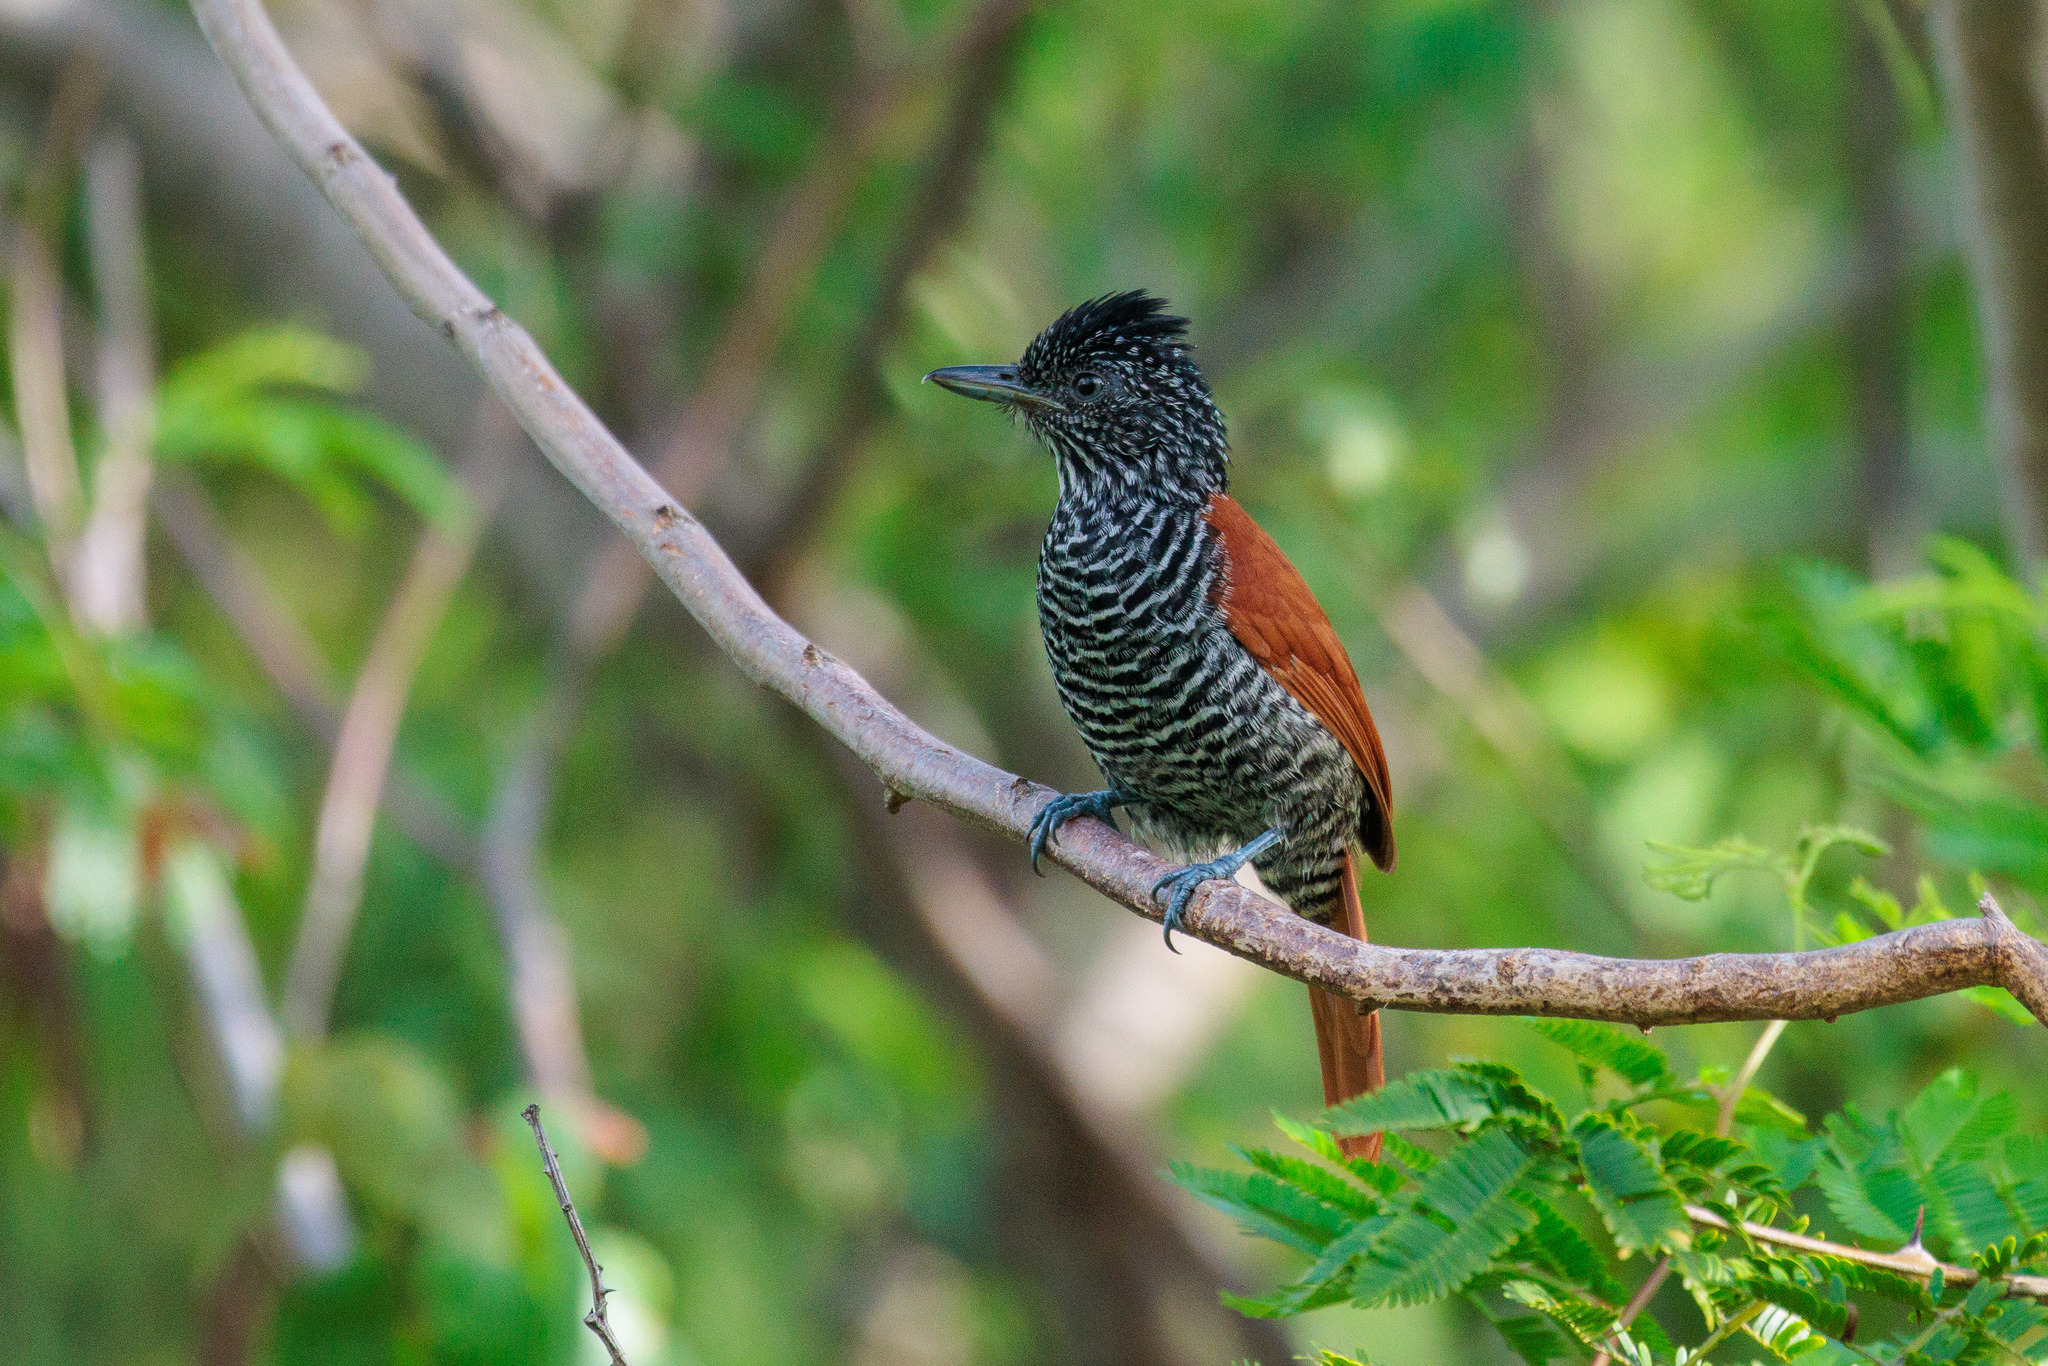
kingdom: Animalia
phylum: Chordata
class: Aves
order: Passeriformes
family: Thamnophilidae
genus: Thamnophilus
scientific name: Thamnophilus palliatus
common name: Chestnut-backed antshrike
